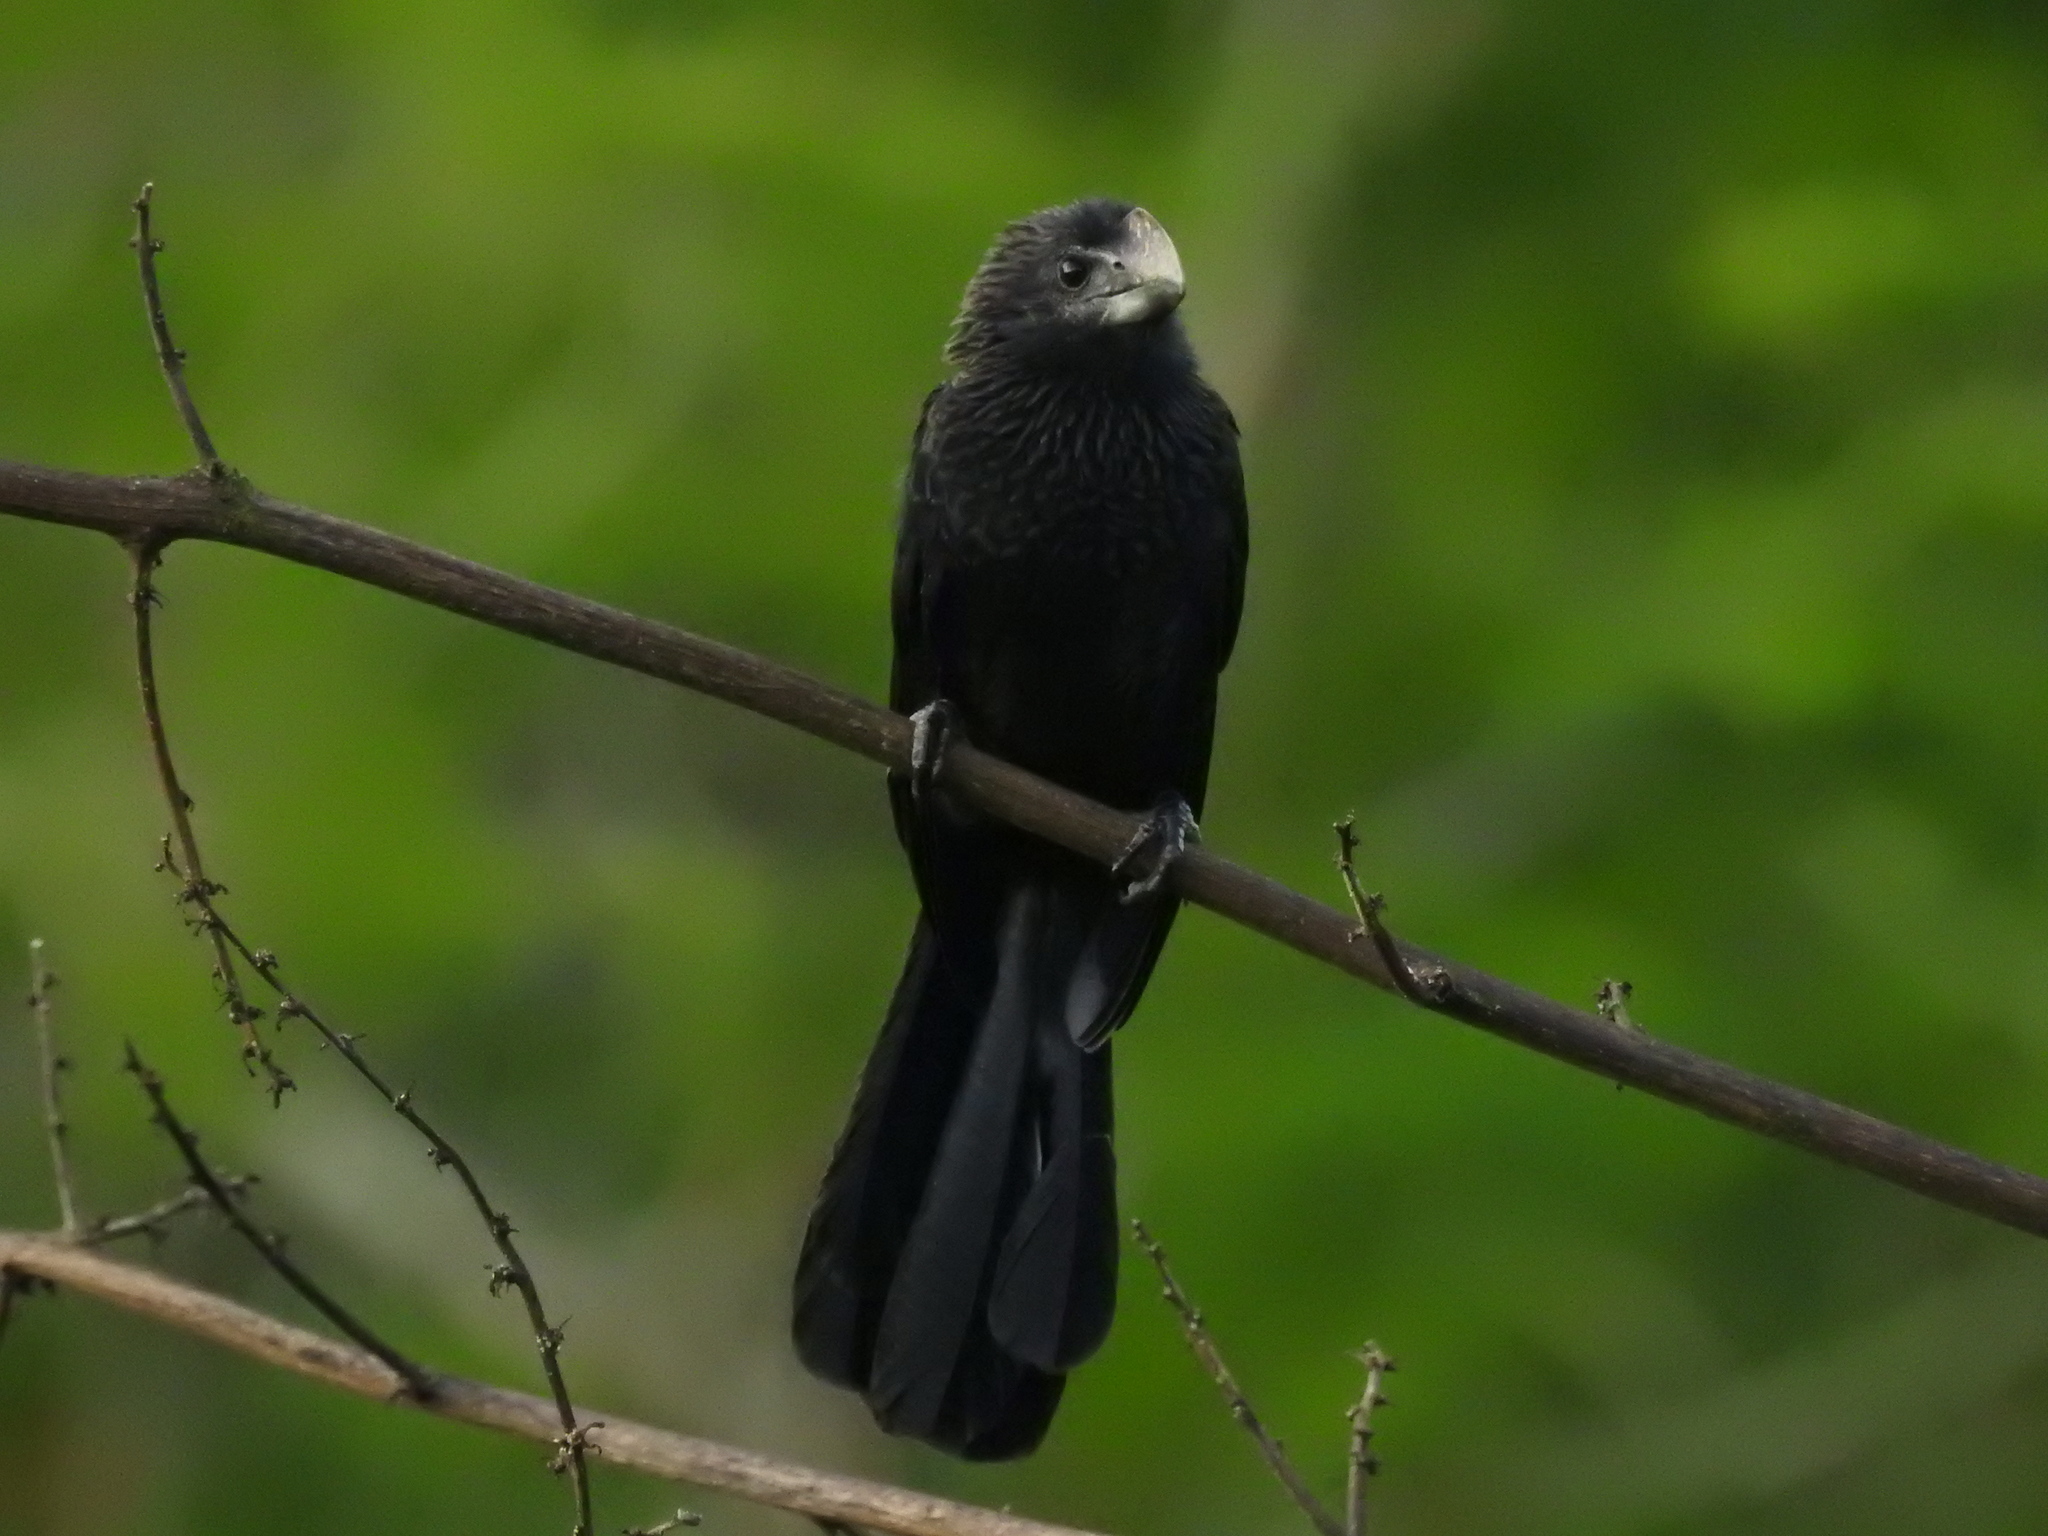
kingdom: Animalia
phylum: Chordata
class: Aves
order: Cuculiformes
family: Cuculidae
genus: Crotophaga
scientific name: Crotophaga ani
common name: Smooth-billed ani
